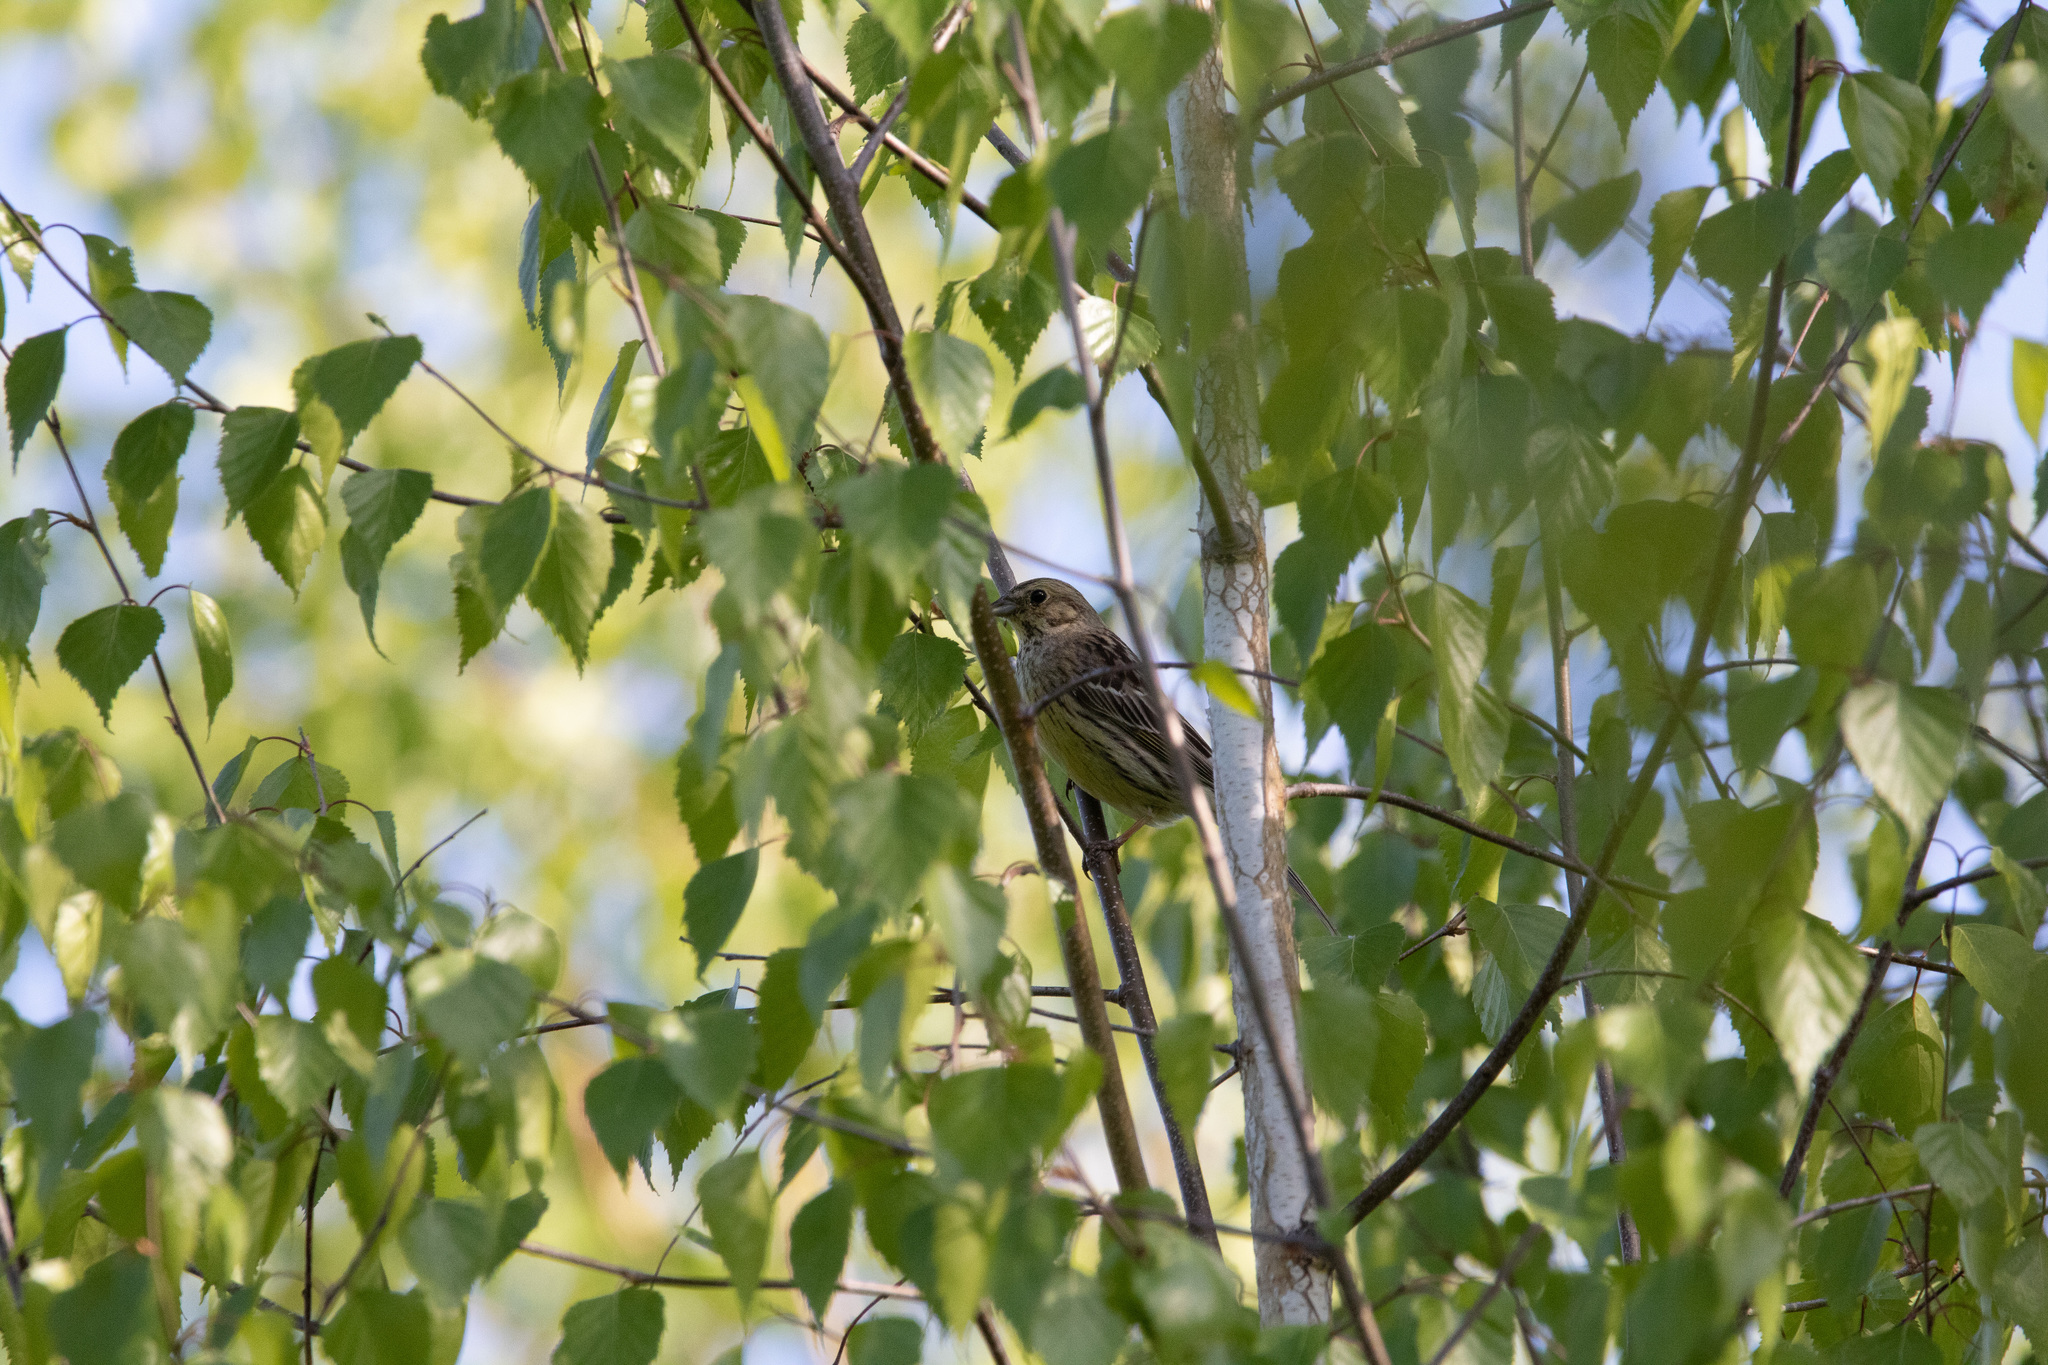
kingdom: Animalia
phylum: Chordata
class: Aves
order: Passeriformes
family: Emberizidae
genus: Emberiza
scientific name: Emberiza citrinella
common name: Yellowhammer
